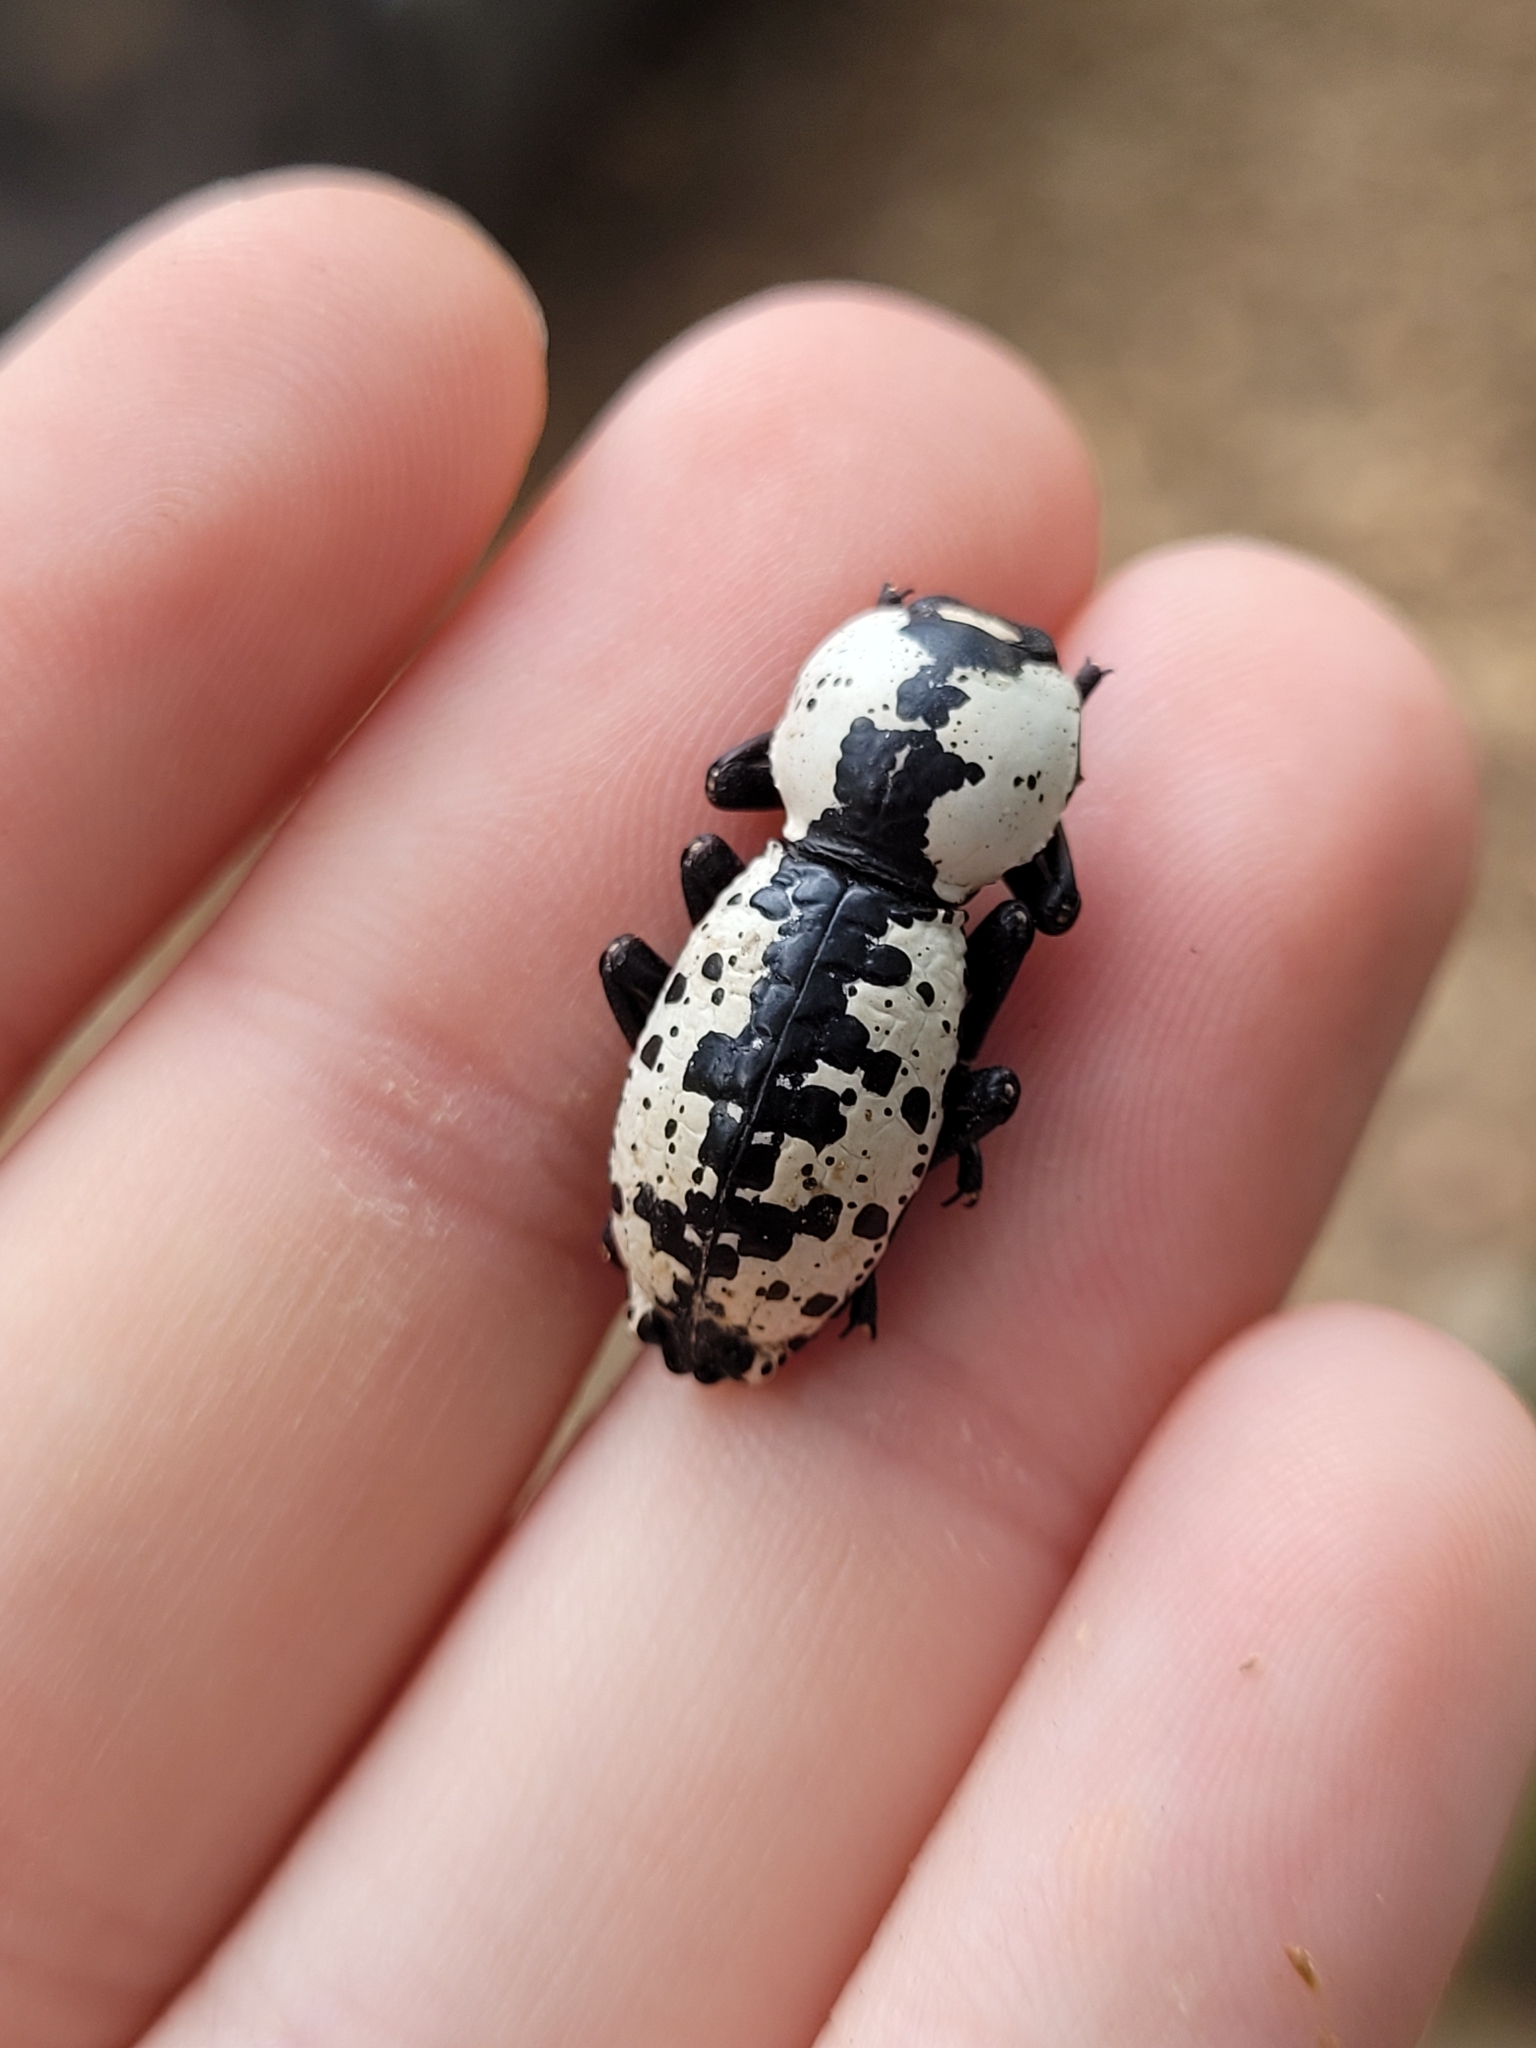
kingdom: Animalia
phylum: Arthropoda
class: Insecta
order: Coleoptera
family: Zopheridae
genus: Zopherus
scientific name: Zopherus nodulosus
